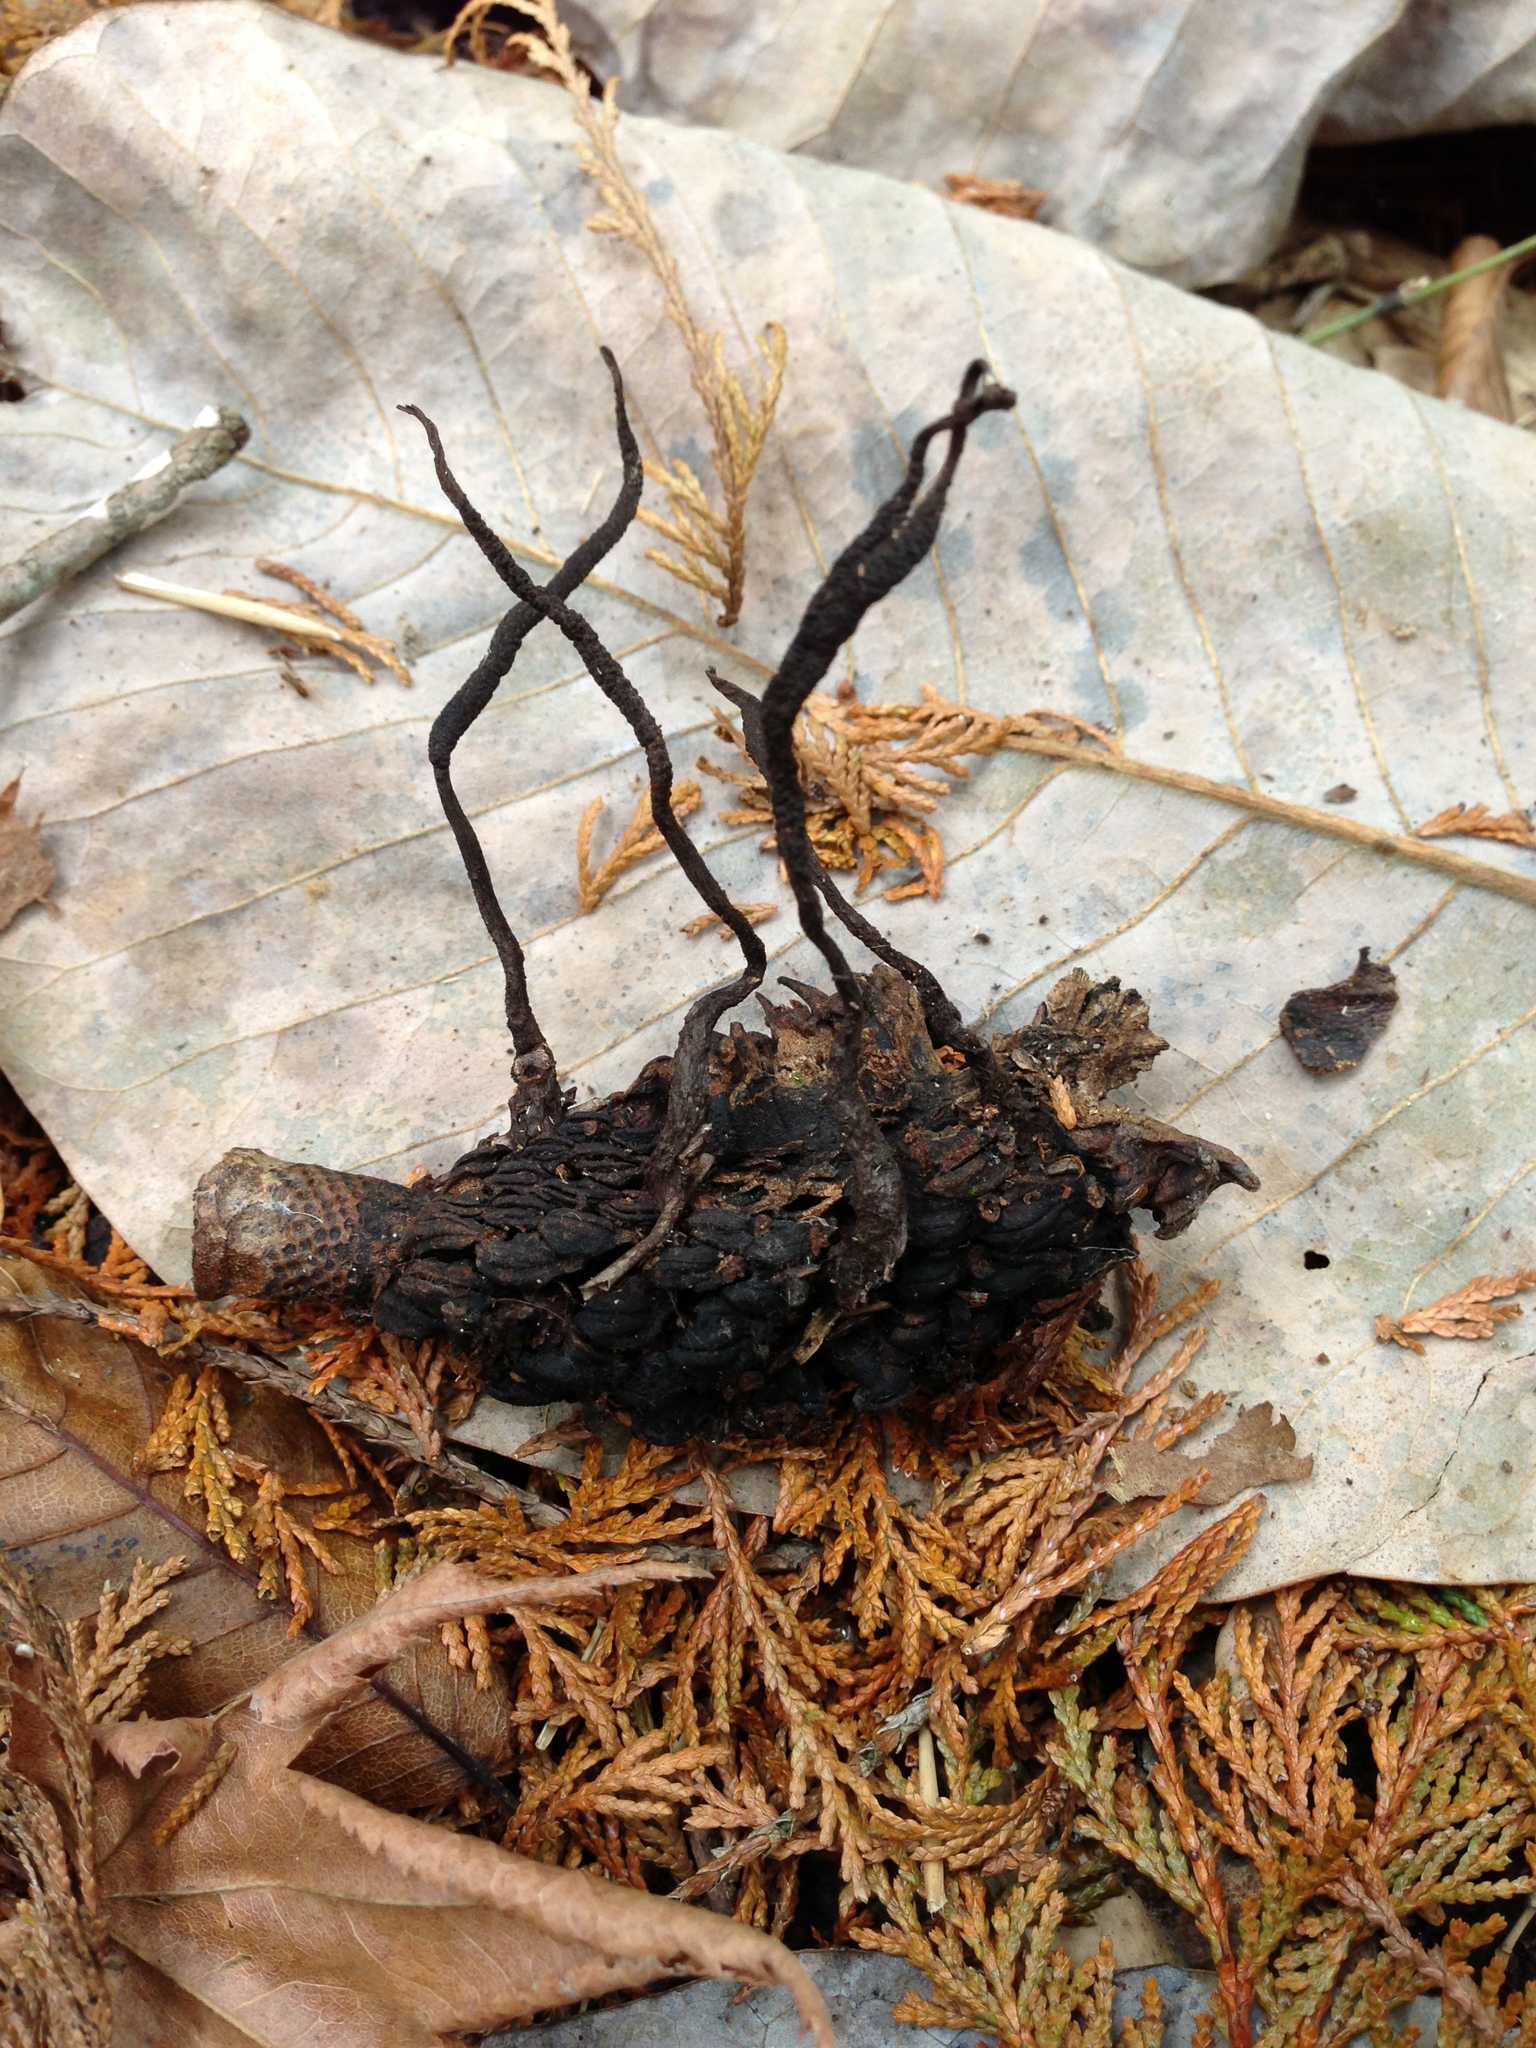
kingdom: Fungi
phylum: Ascomycota
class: Sordariomycetes
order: Xylariales
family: Xylariaceae
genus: Xylaria
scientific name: Xylaria magnoliae
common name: Magnolia-cone xylaria
